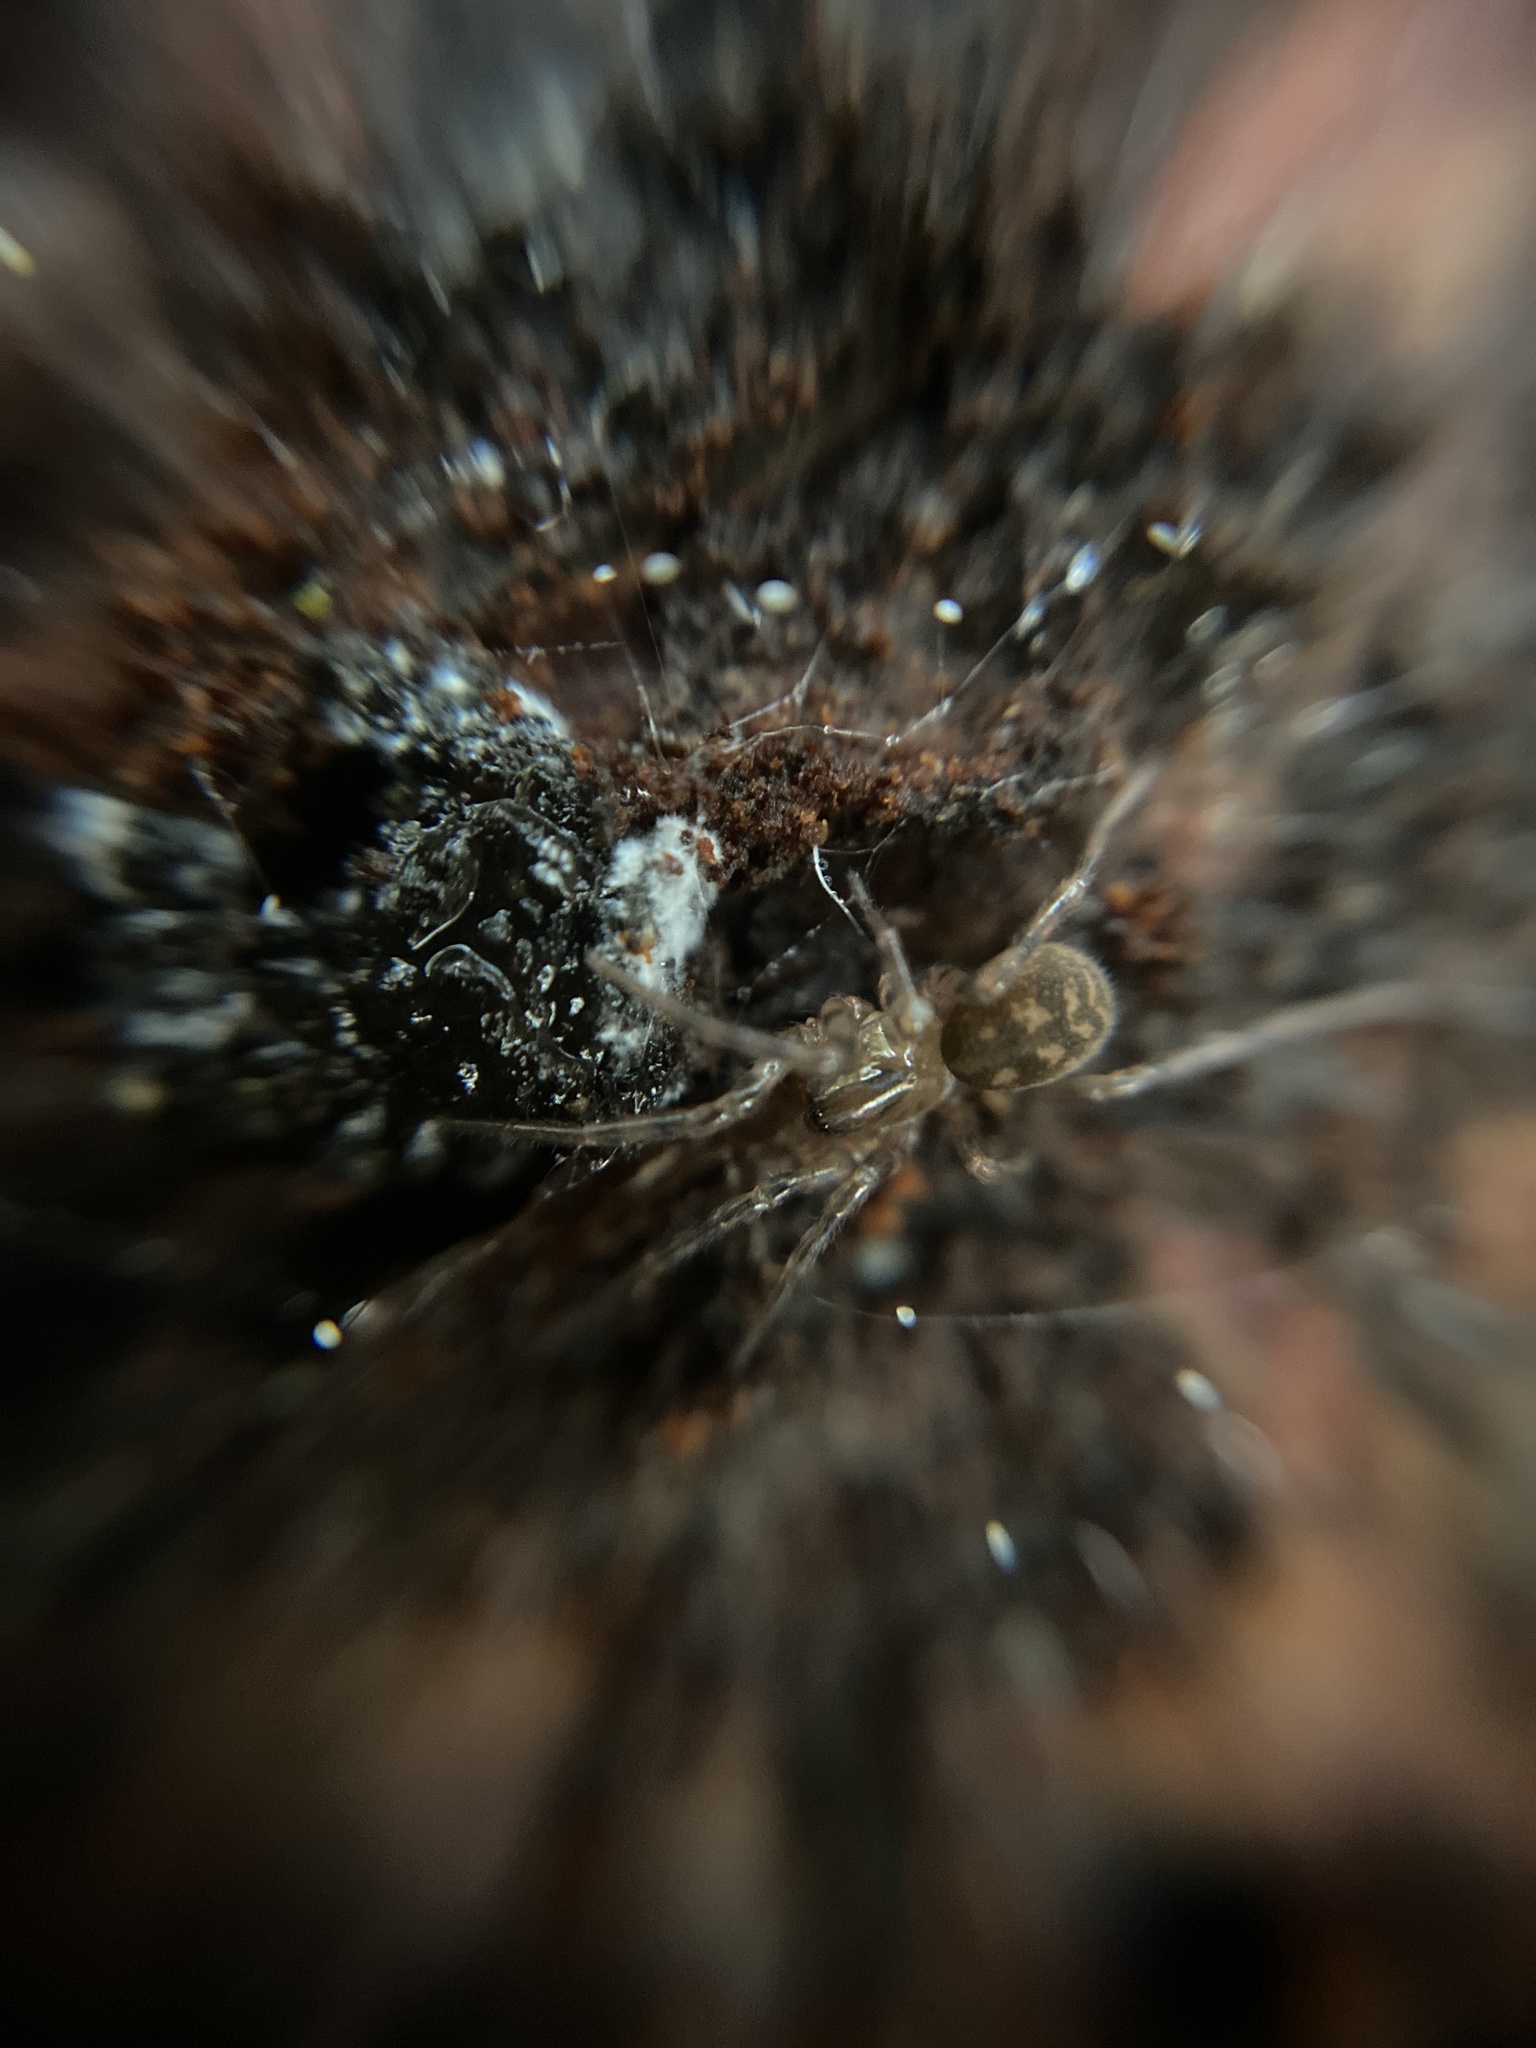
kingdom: Animalia
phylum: Arthropoda
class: Arachnida
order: Araneae
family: Amaurobiidae
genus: Callobius
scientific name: Callobius claustrarius
